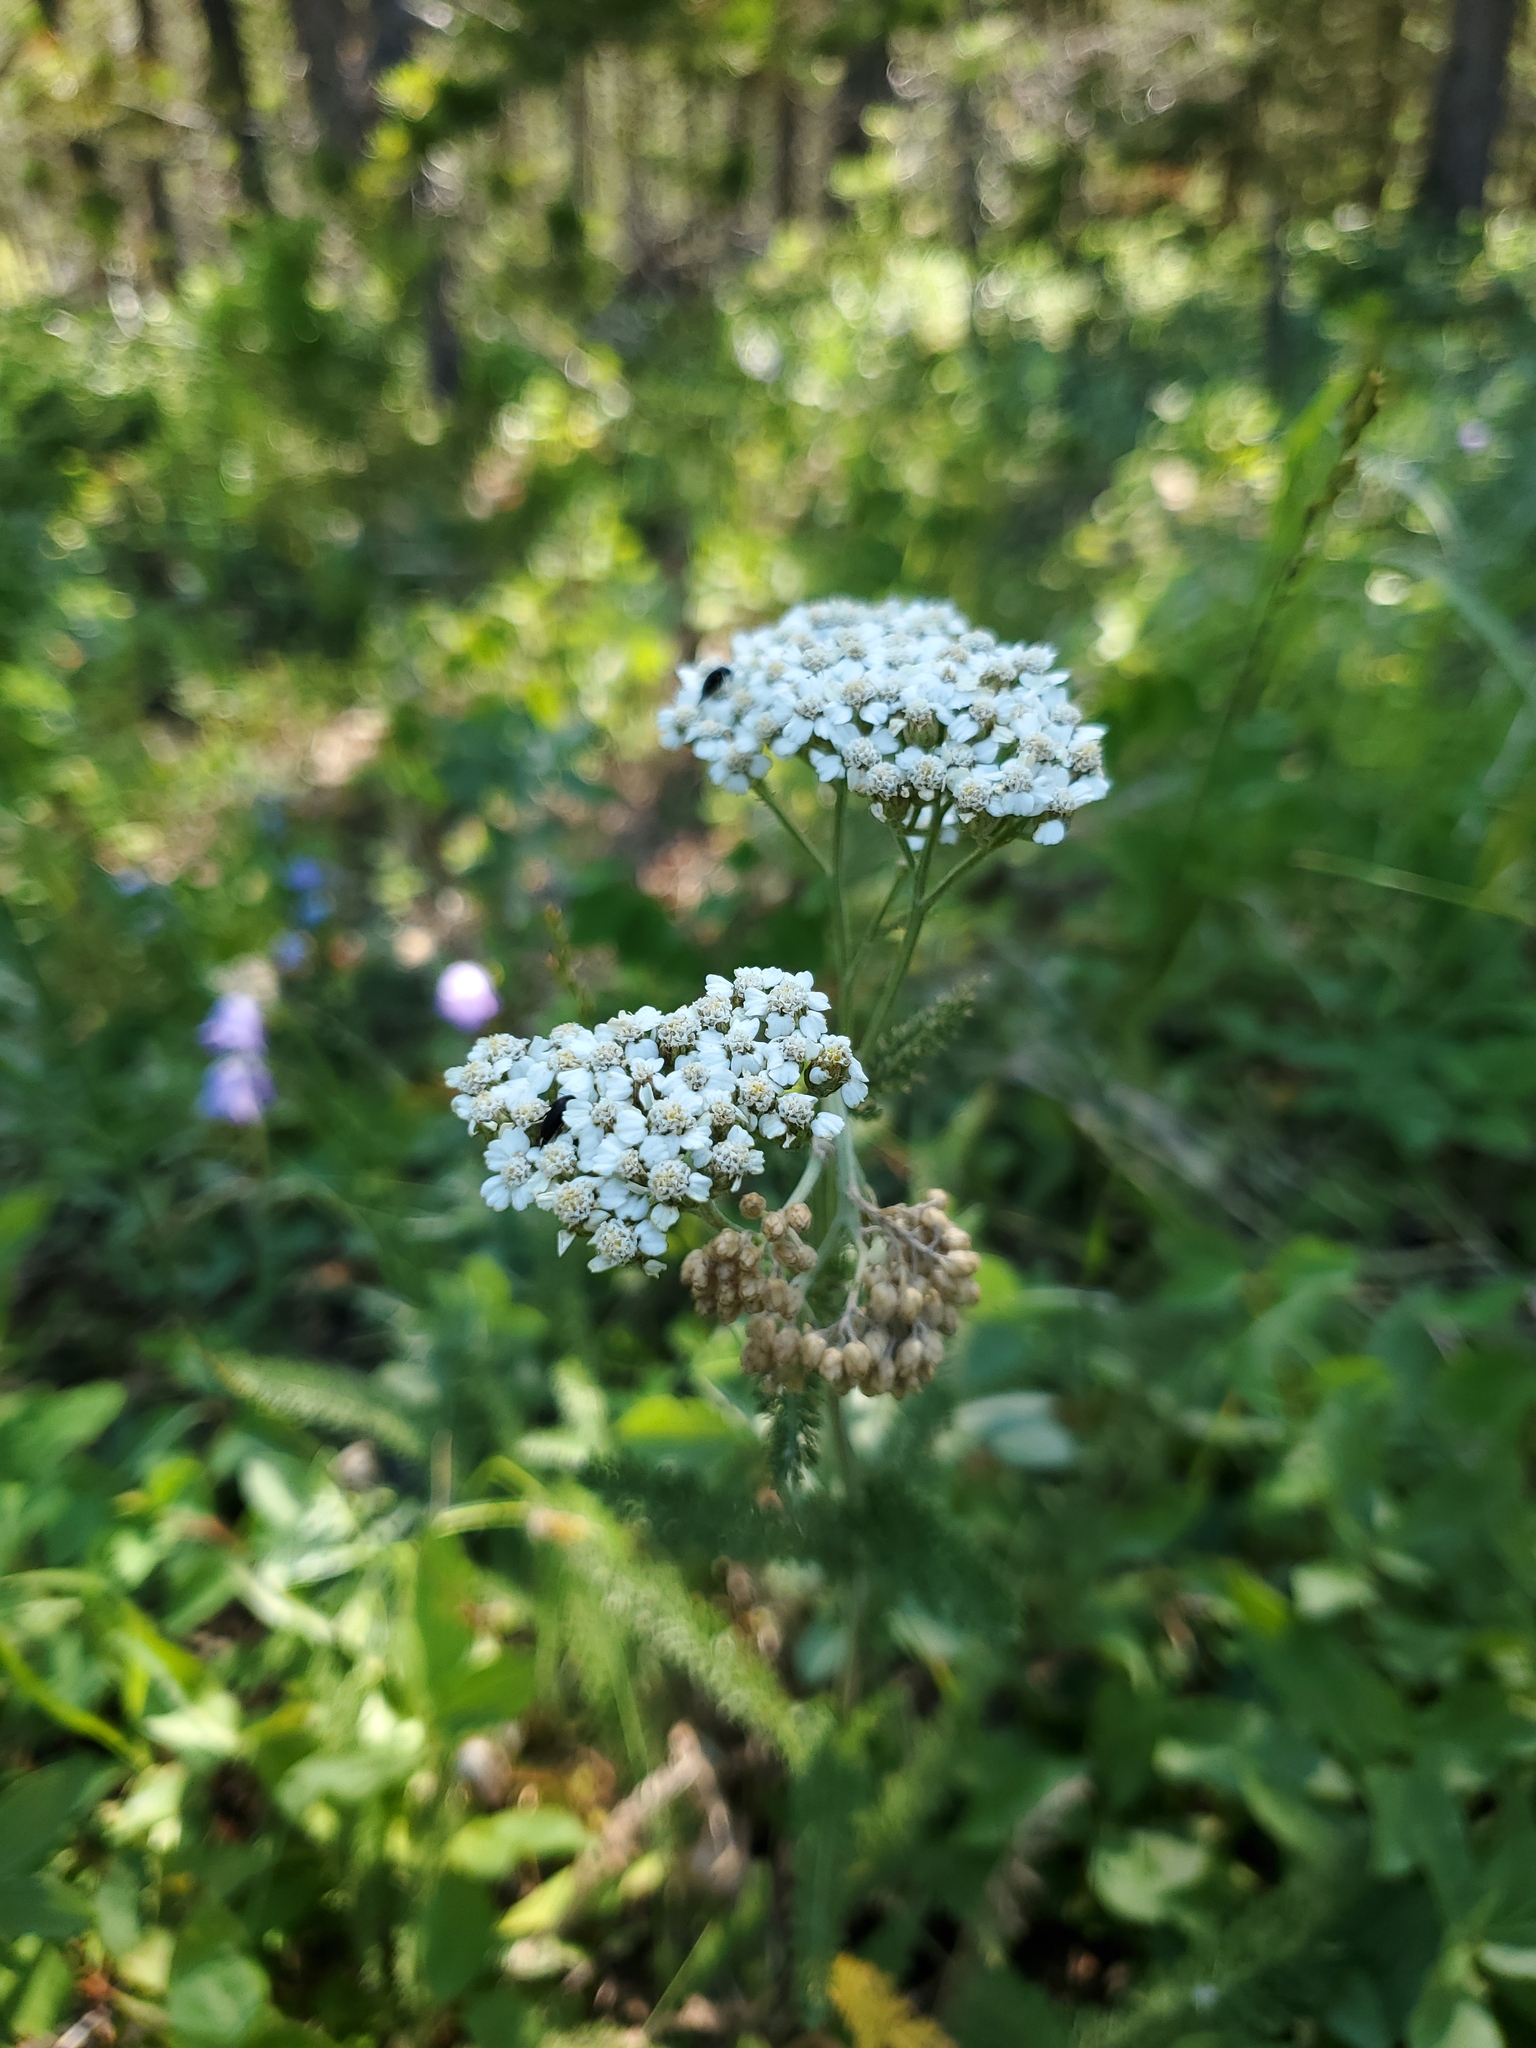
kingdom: Plantae
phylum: Tracheophyta
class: Magnoliopsida
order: Asterales
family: Asteraceae
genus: Achillea
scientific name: Achillea millefolium
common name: Yarrow
